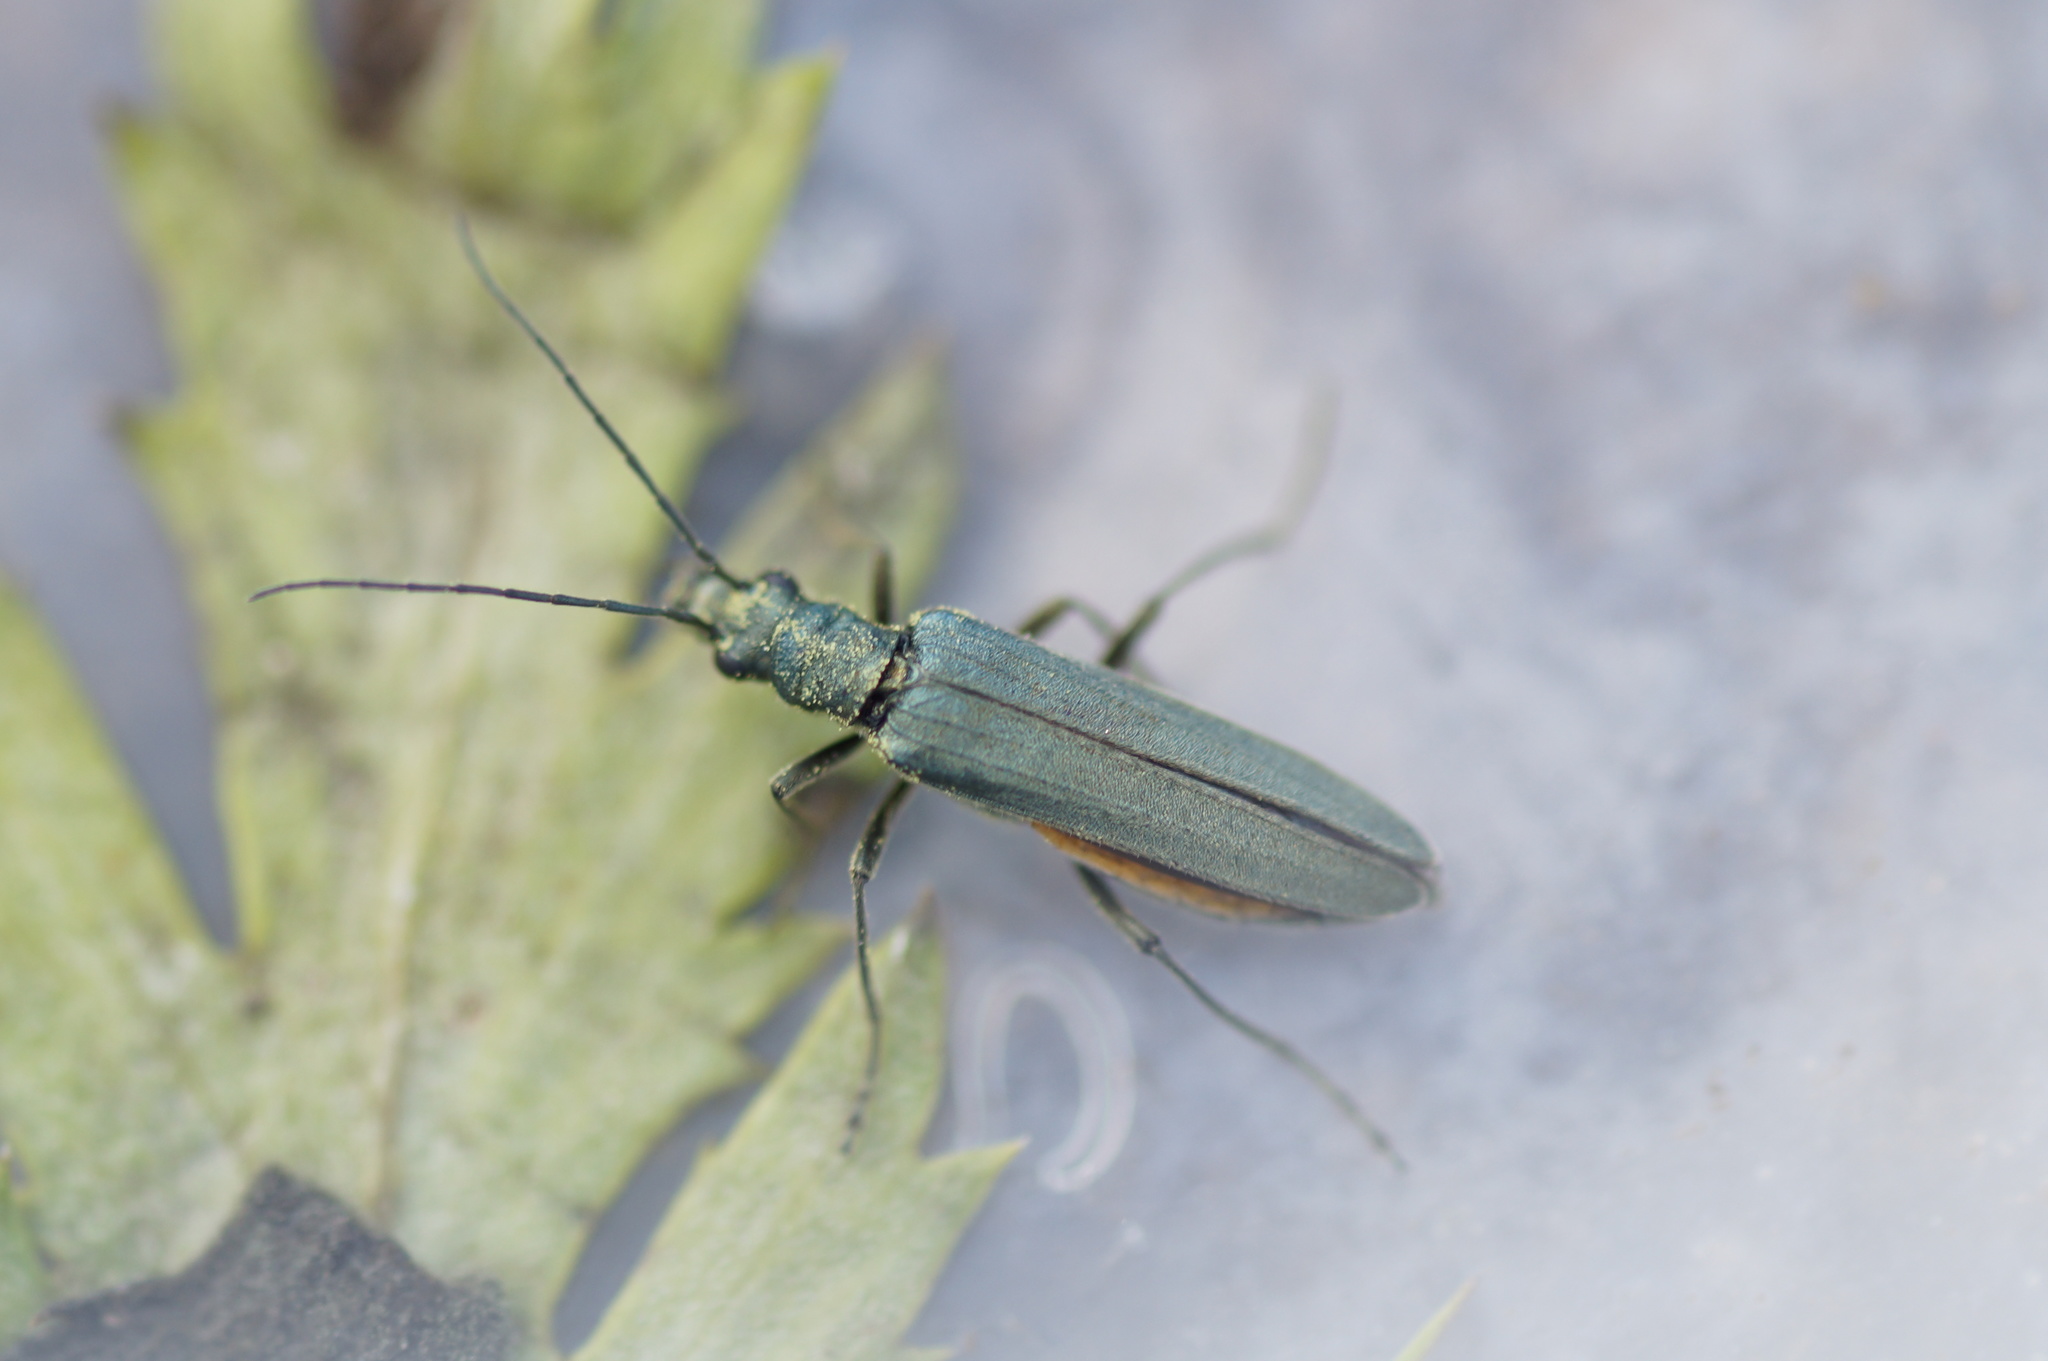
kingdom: Animalia
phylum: Arthropoda
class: Insecta
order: Coleoptera
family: Oedemeridae
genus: Oedemera
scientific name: Oedemera virescens
